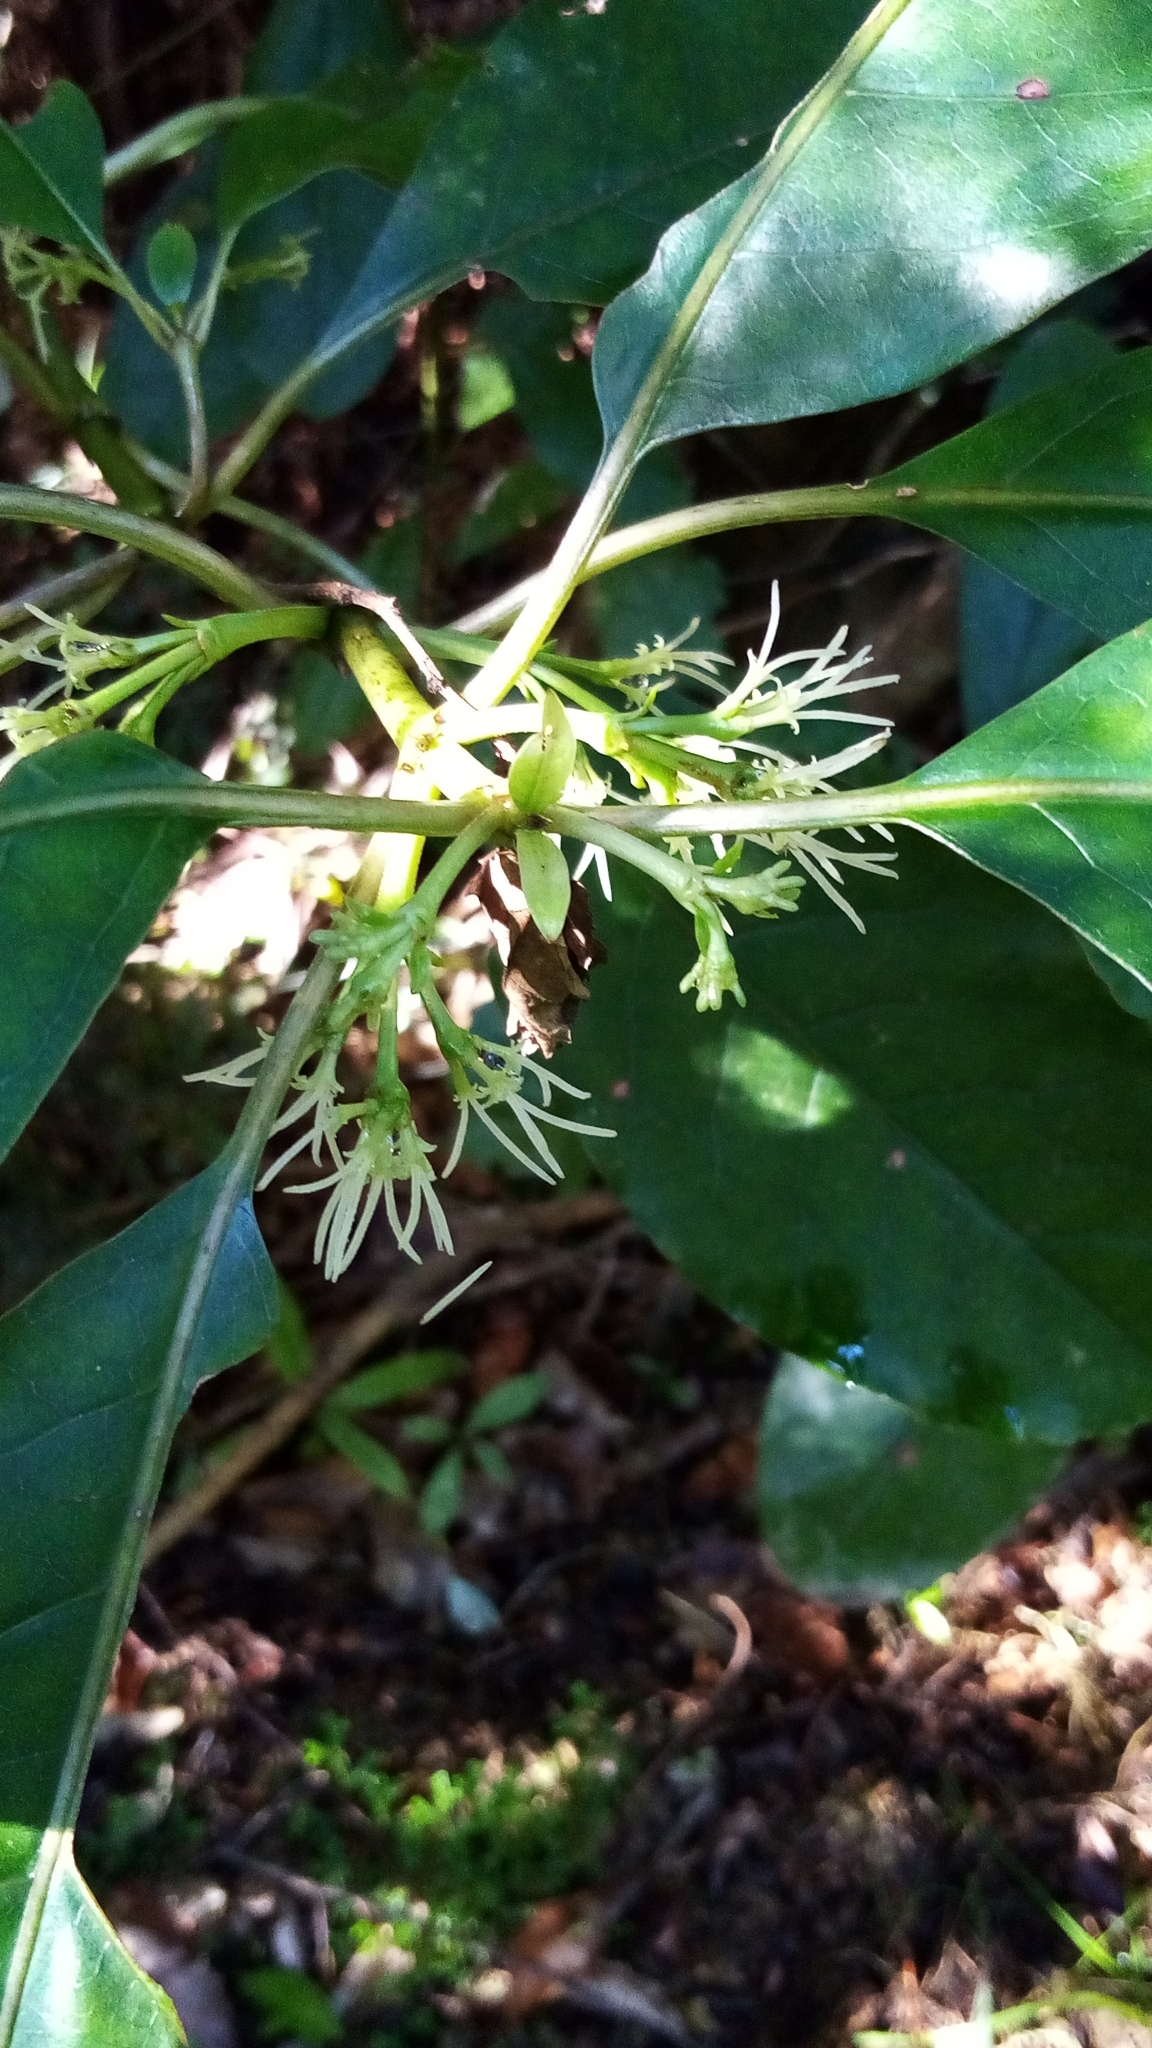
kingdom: Plantae
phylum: Tracheophyta
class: Magnoliopsida
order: Gentianales
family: Rubiaceae
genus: Coprosma
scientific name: Coprosma autumnalis
